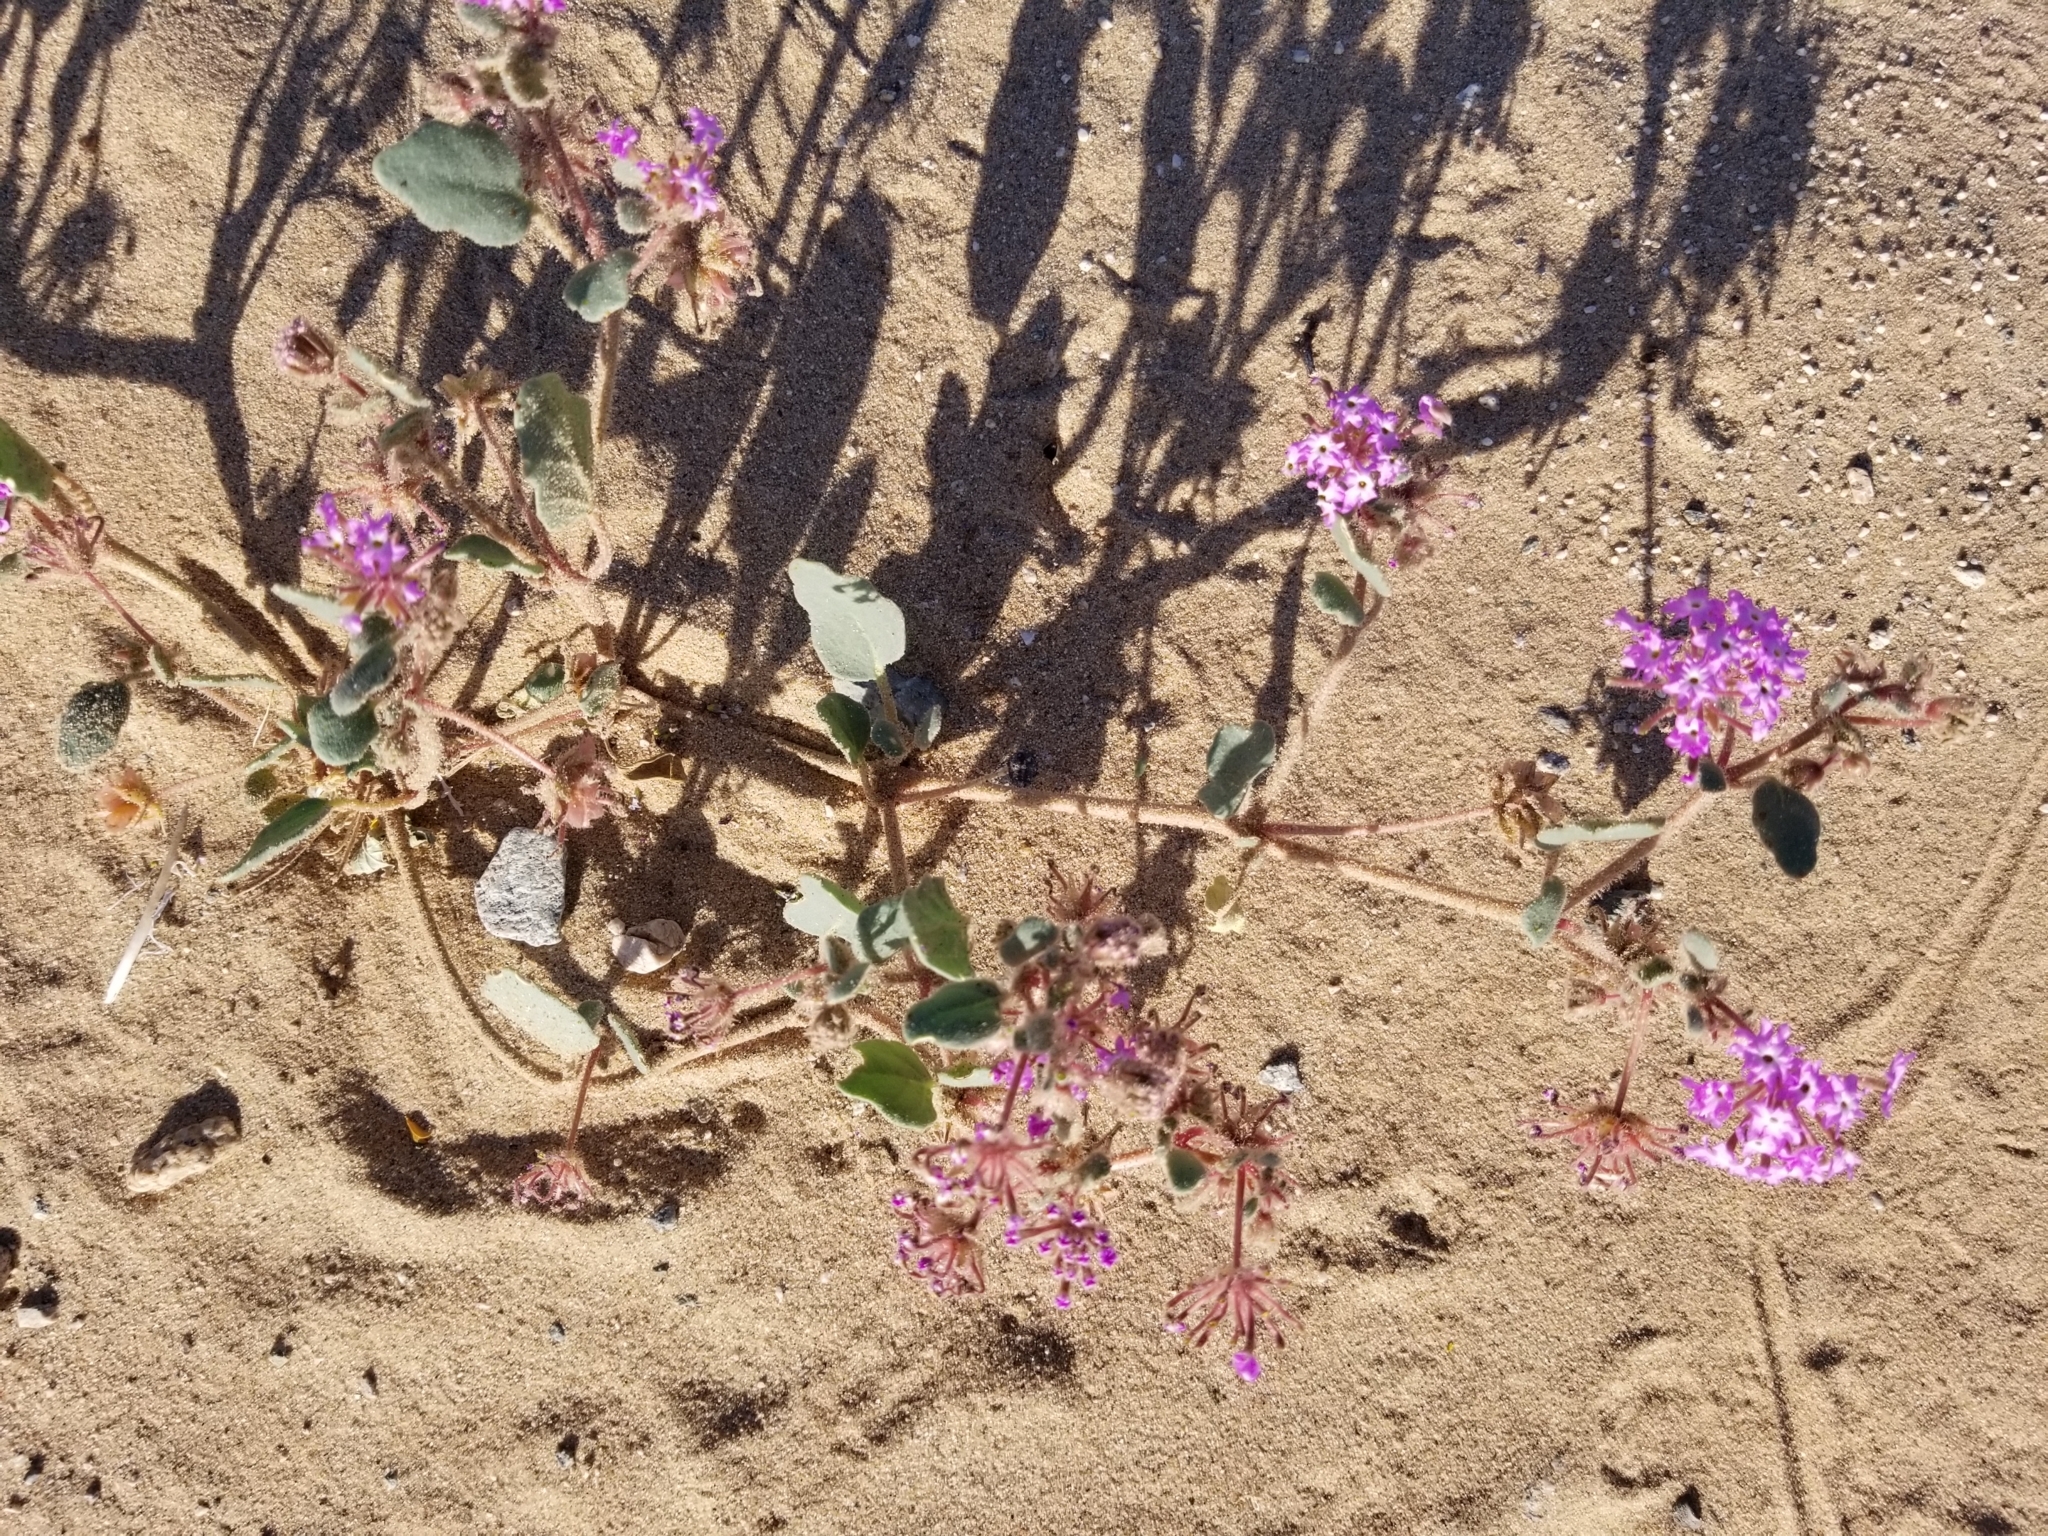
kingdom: Plantae
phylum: Tracheophyta
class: Magnoliopsida
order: Caryophyllales
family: Nyctaginaceae
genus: Abronia
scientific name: Abronia villosa
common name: Desert sand-verbena
